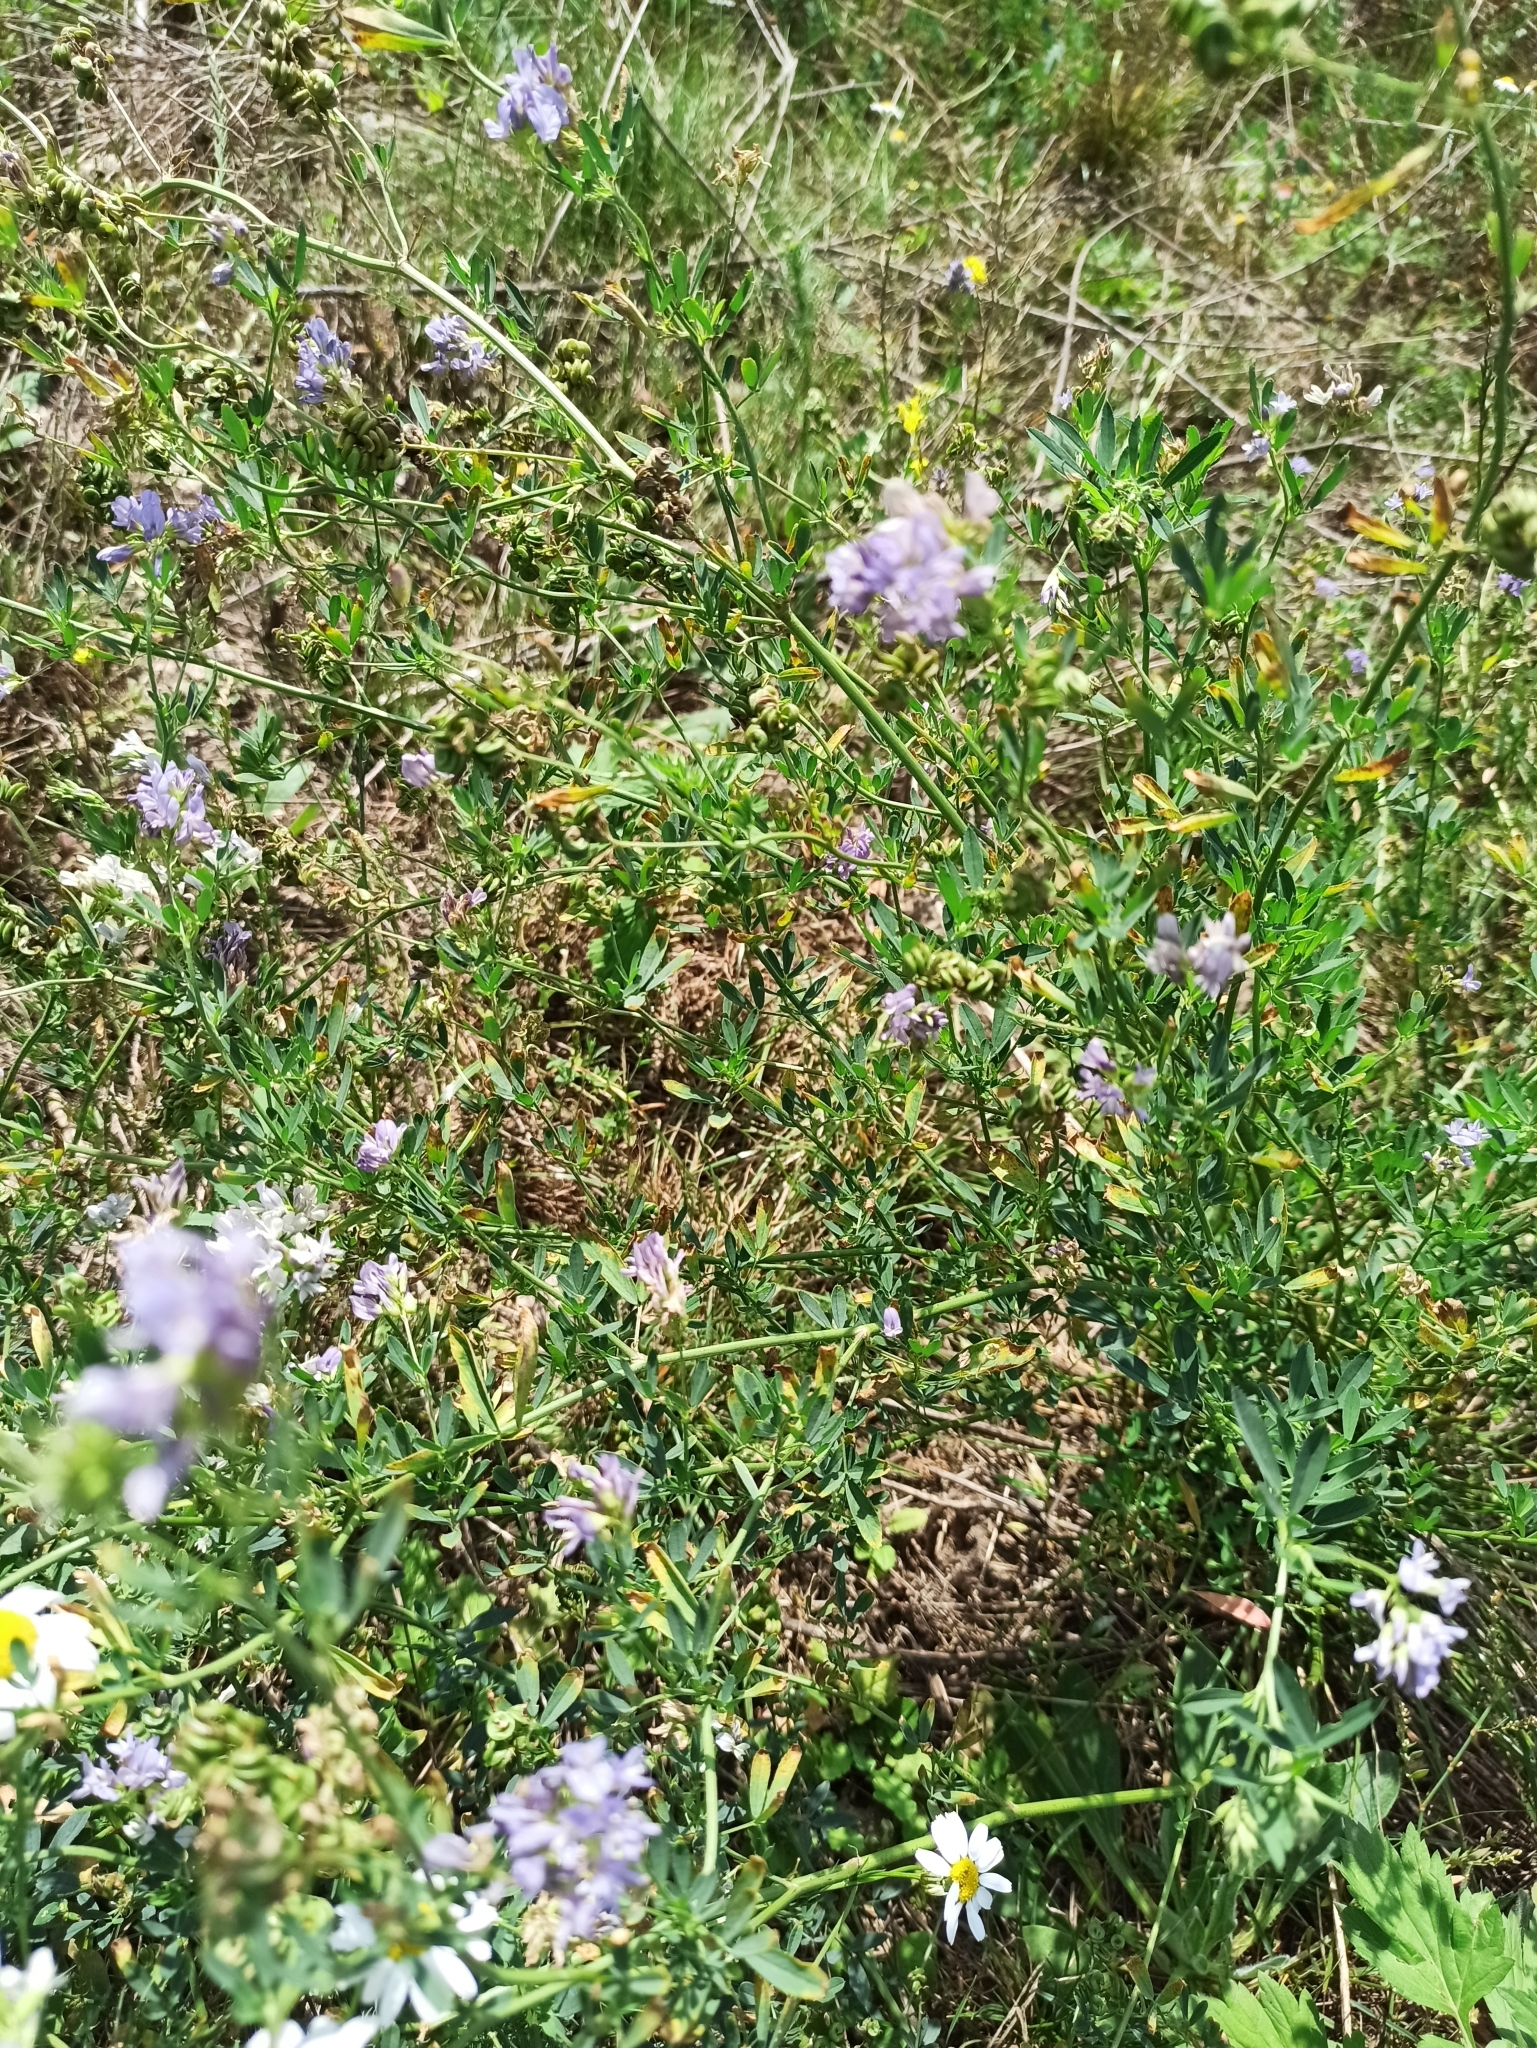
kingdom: Plantae
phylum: Tracheophyta
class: Magnoliopsida
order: Fabales
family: Fabaceae
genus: Medicago
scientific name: Medicago varia
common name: Sand lucerne
